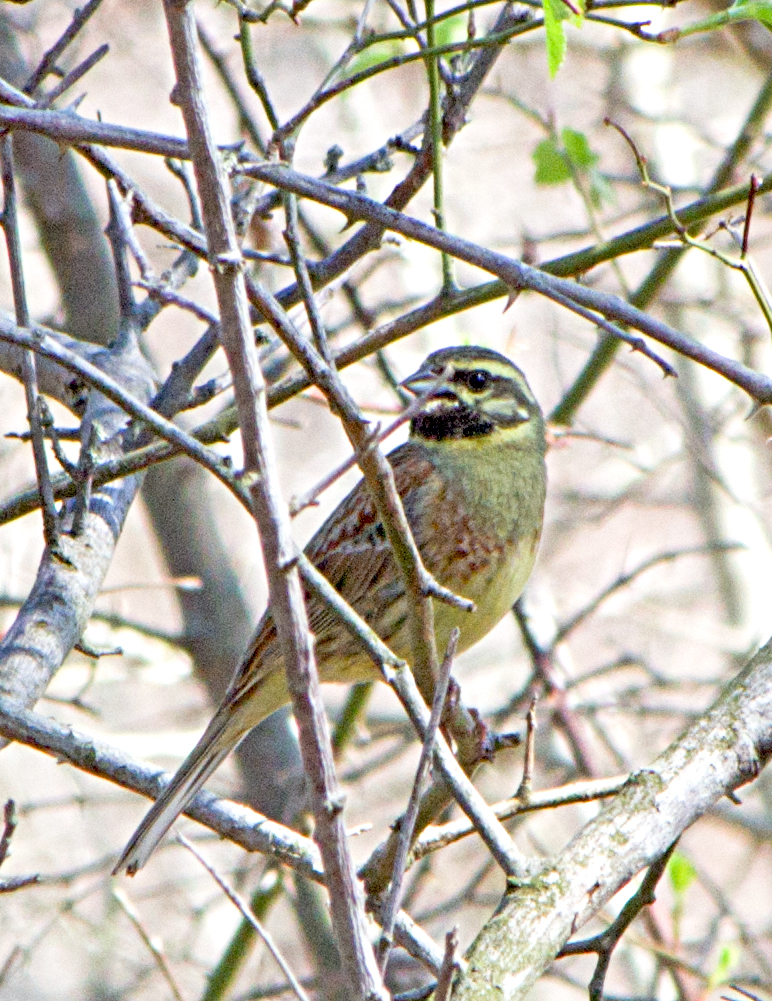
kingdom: Animalia
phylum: Chordata
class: Aves
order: Passeriformes
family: Emberizidae
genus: Emberiza
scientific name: Emberiza cirlus
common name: Cirl bunting
